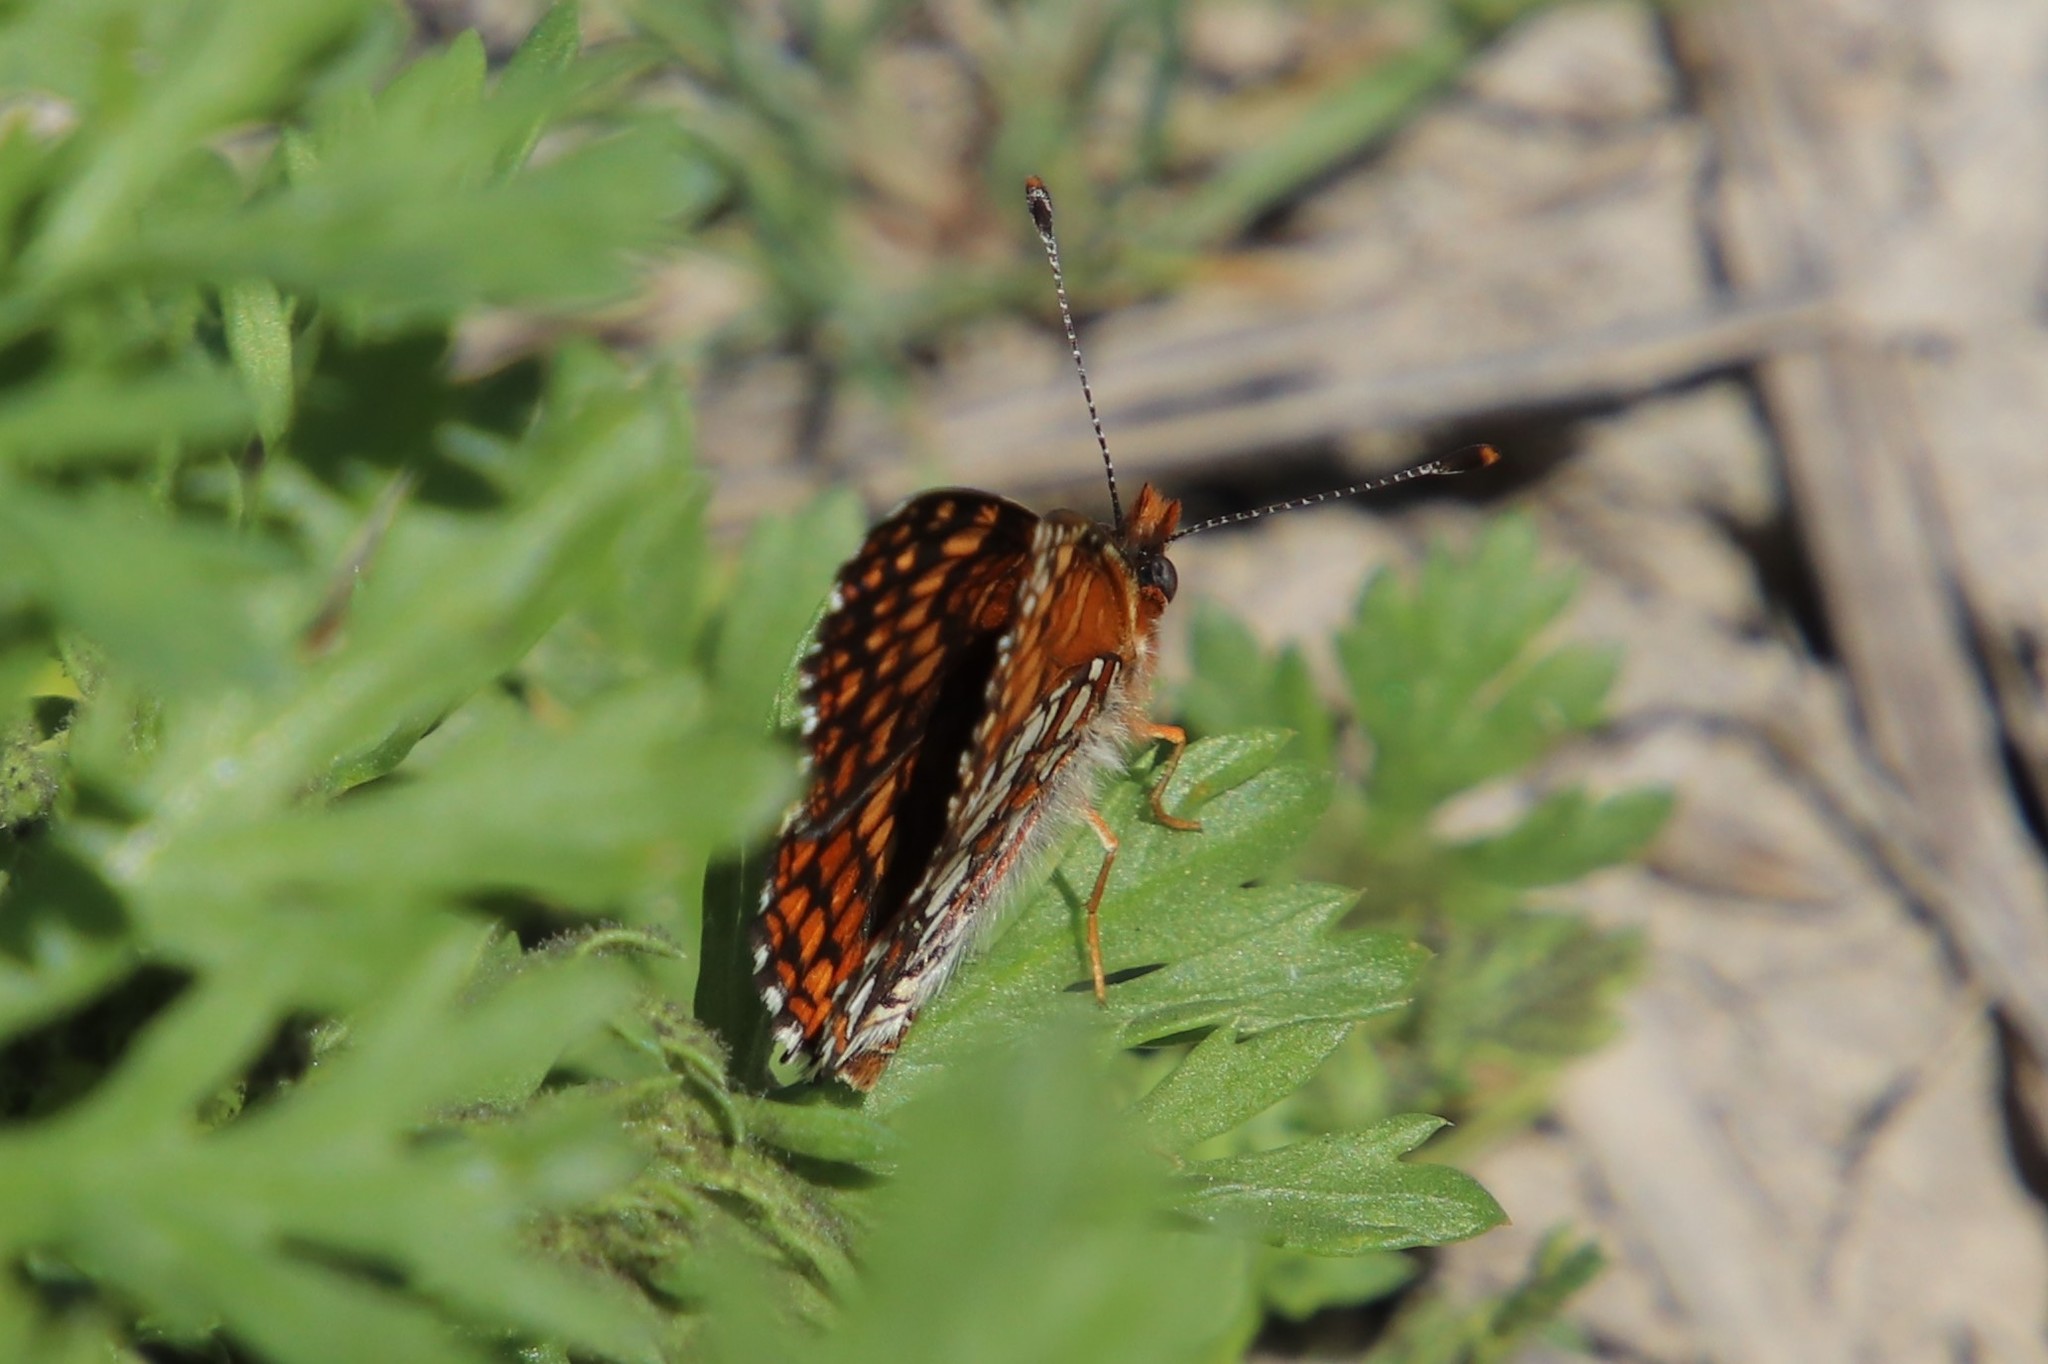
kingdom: Animalia
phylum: Arthropoda
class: Insecta
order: Lepidoptera
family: Nymphalidae
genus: Chlosyne
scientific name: Chlosyne gabbii
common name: Gabb's checkerspot
